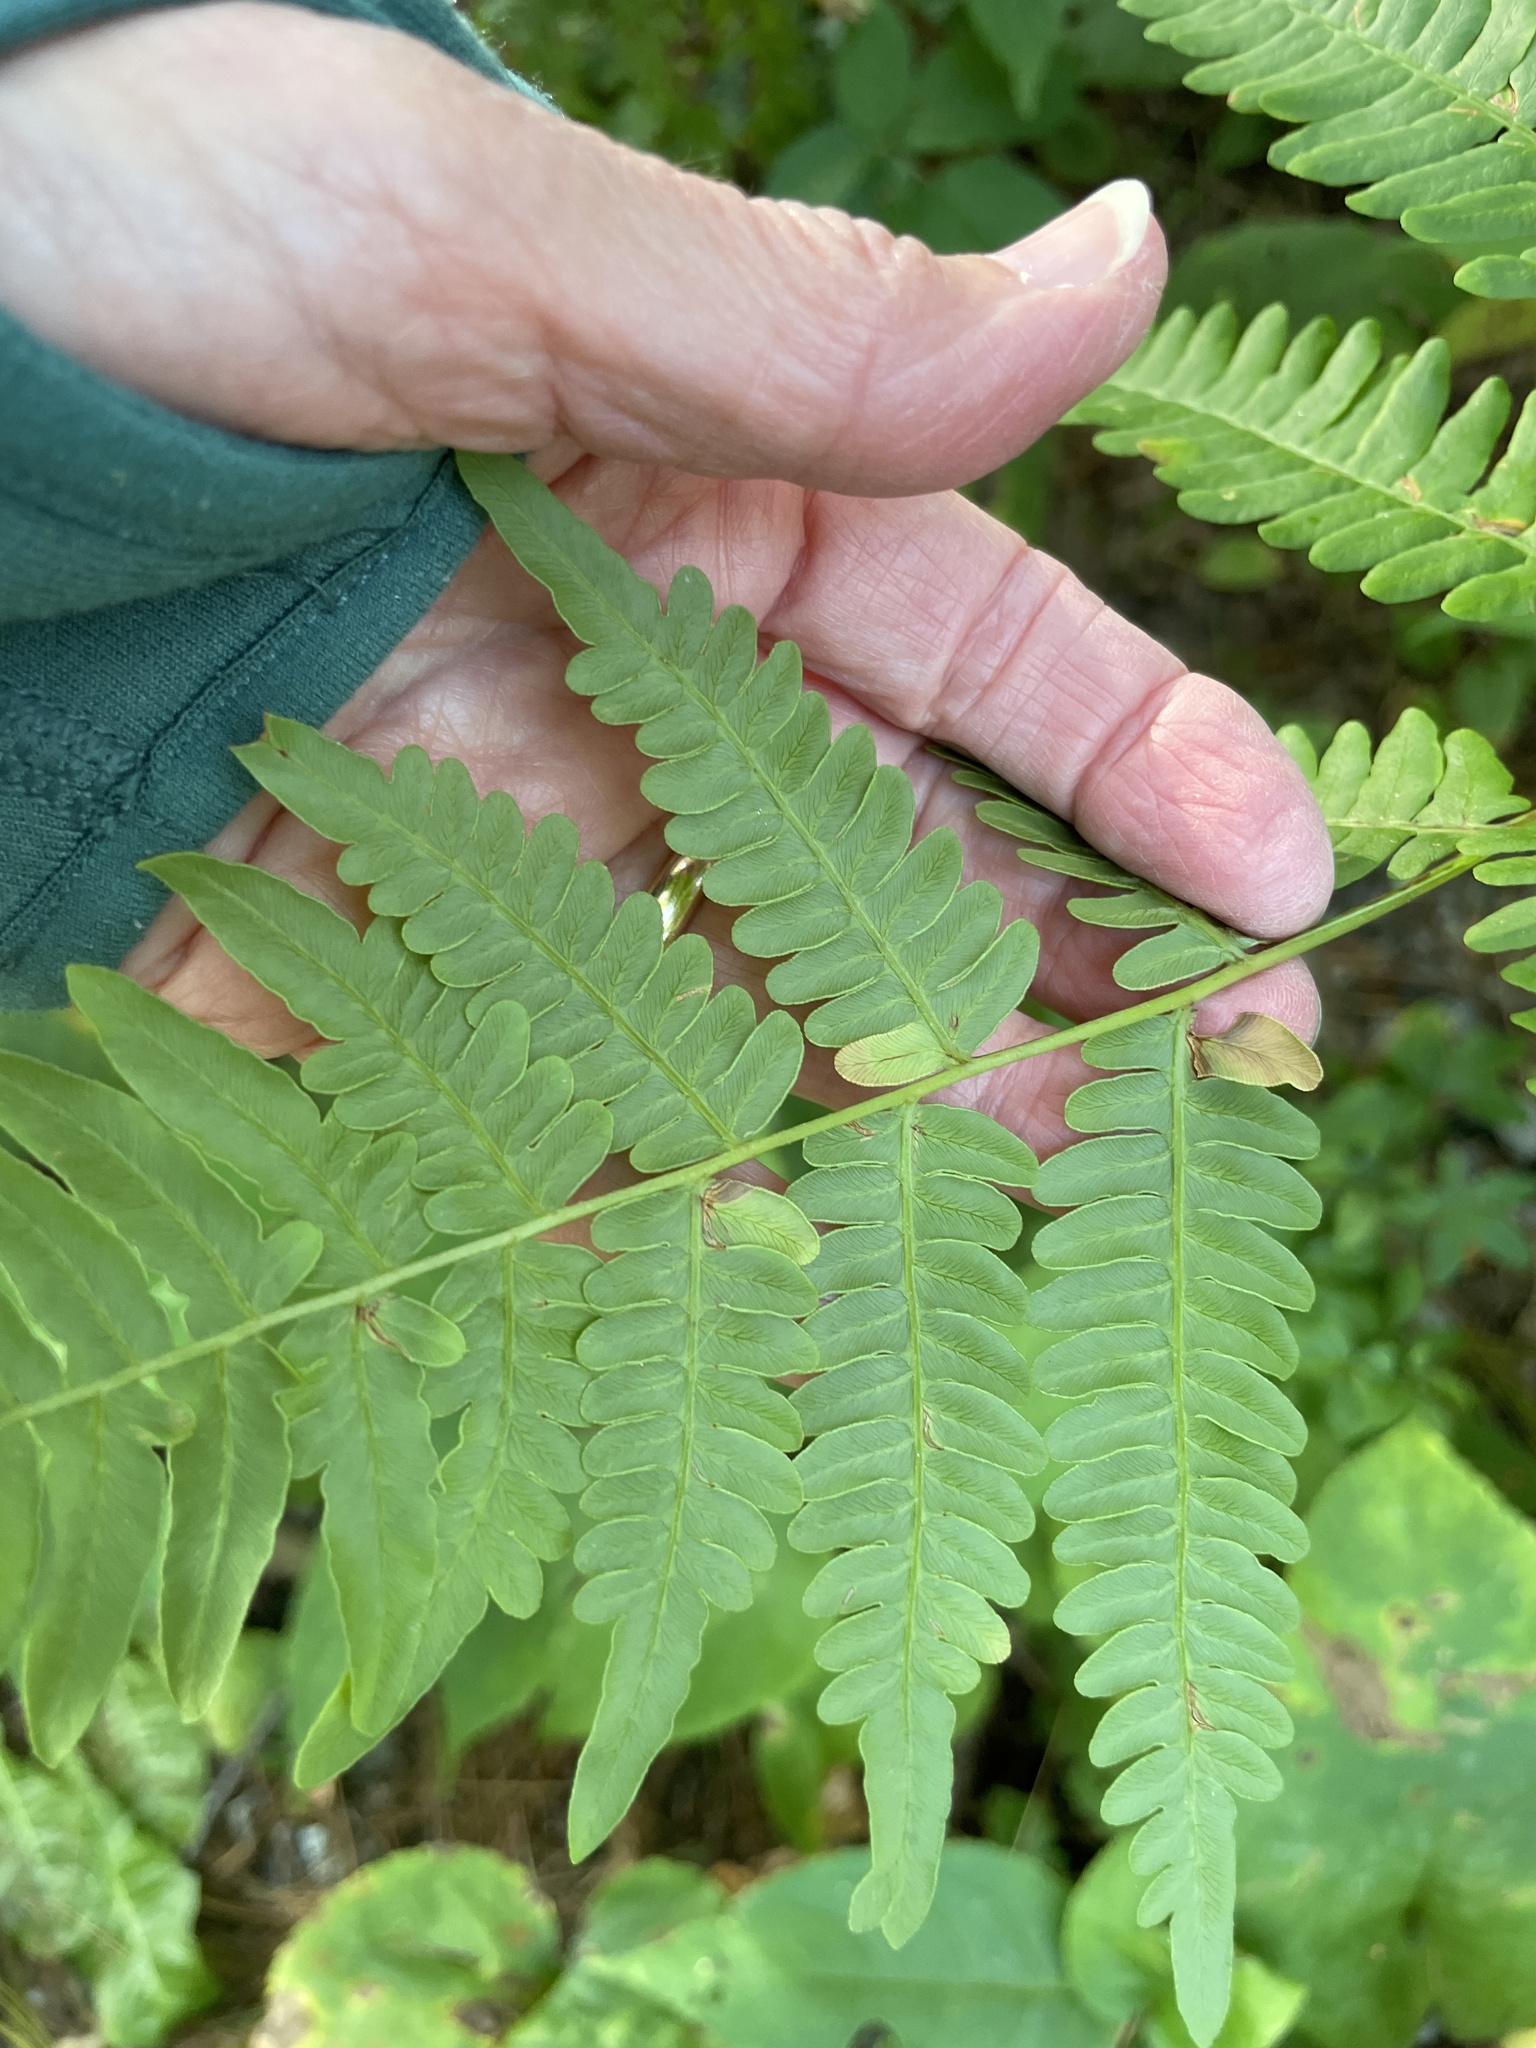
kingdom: Plantae
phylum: Tracheophyta
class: Polypodiopsida
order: Polypodiales
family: Dennstaedtiaceae
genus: Pteridium
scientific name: Pteridium aquilinum
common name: Bracken
